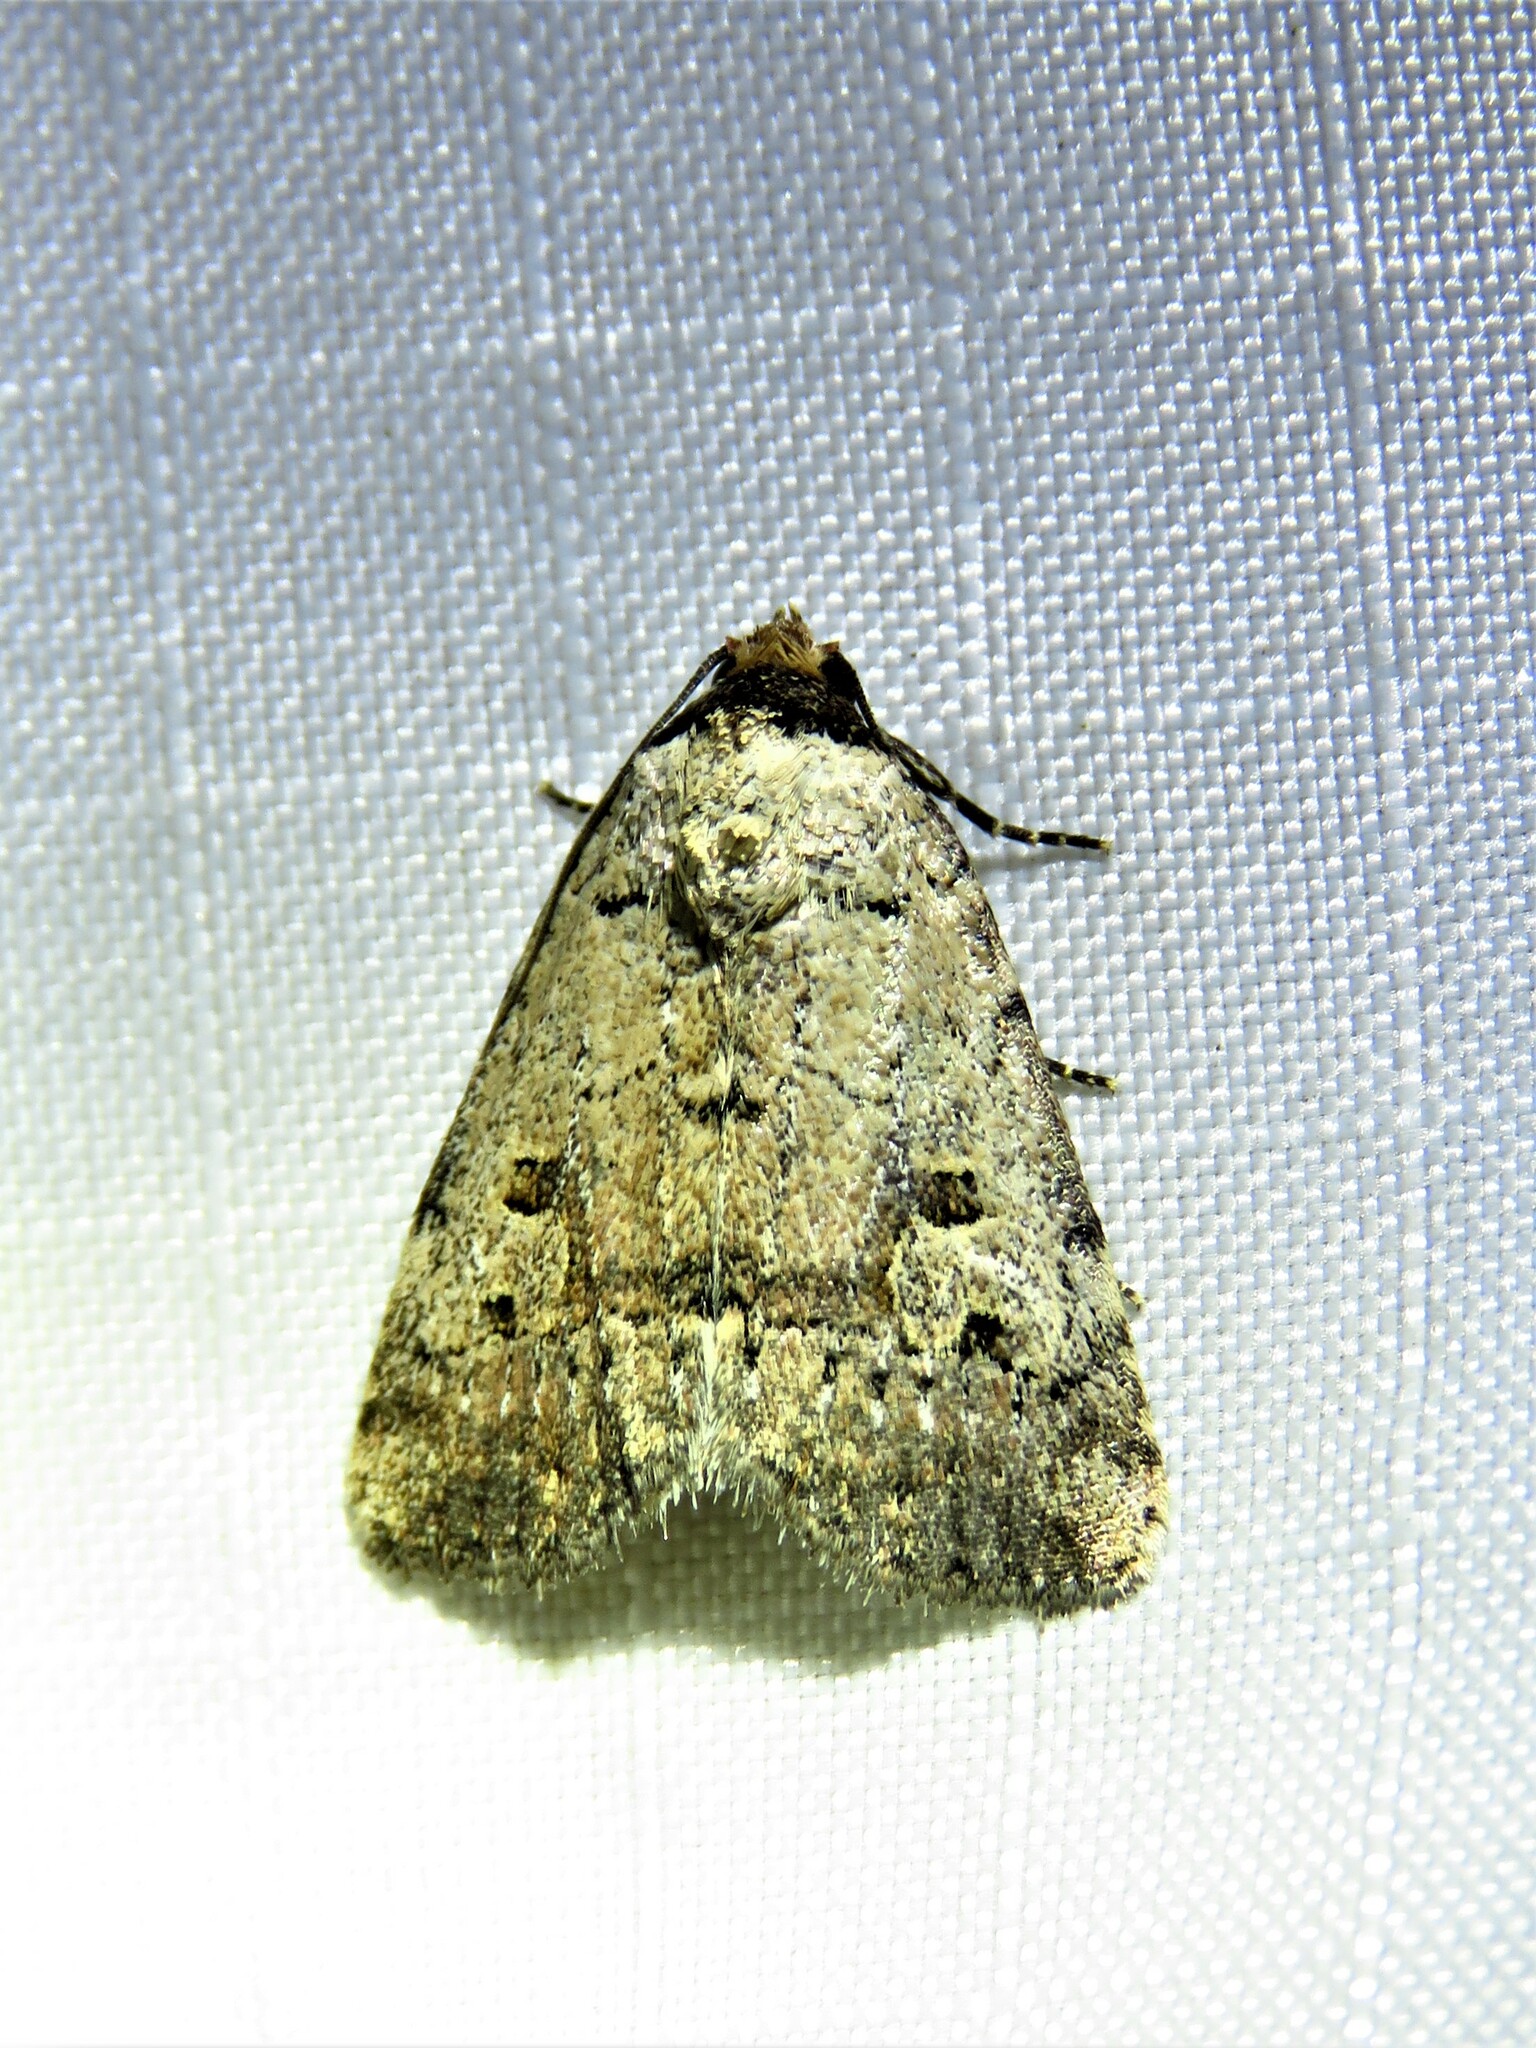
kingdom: Animalia
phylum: Arthropoda
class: Insecta
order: Lepidoptera
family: Noctuidae
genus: Elaphria
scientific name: Elaphria festivoides
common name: Festive midget
